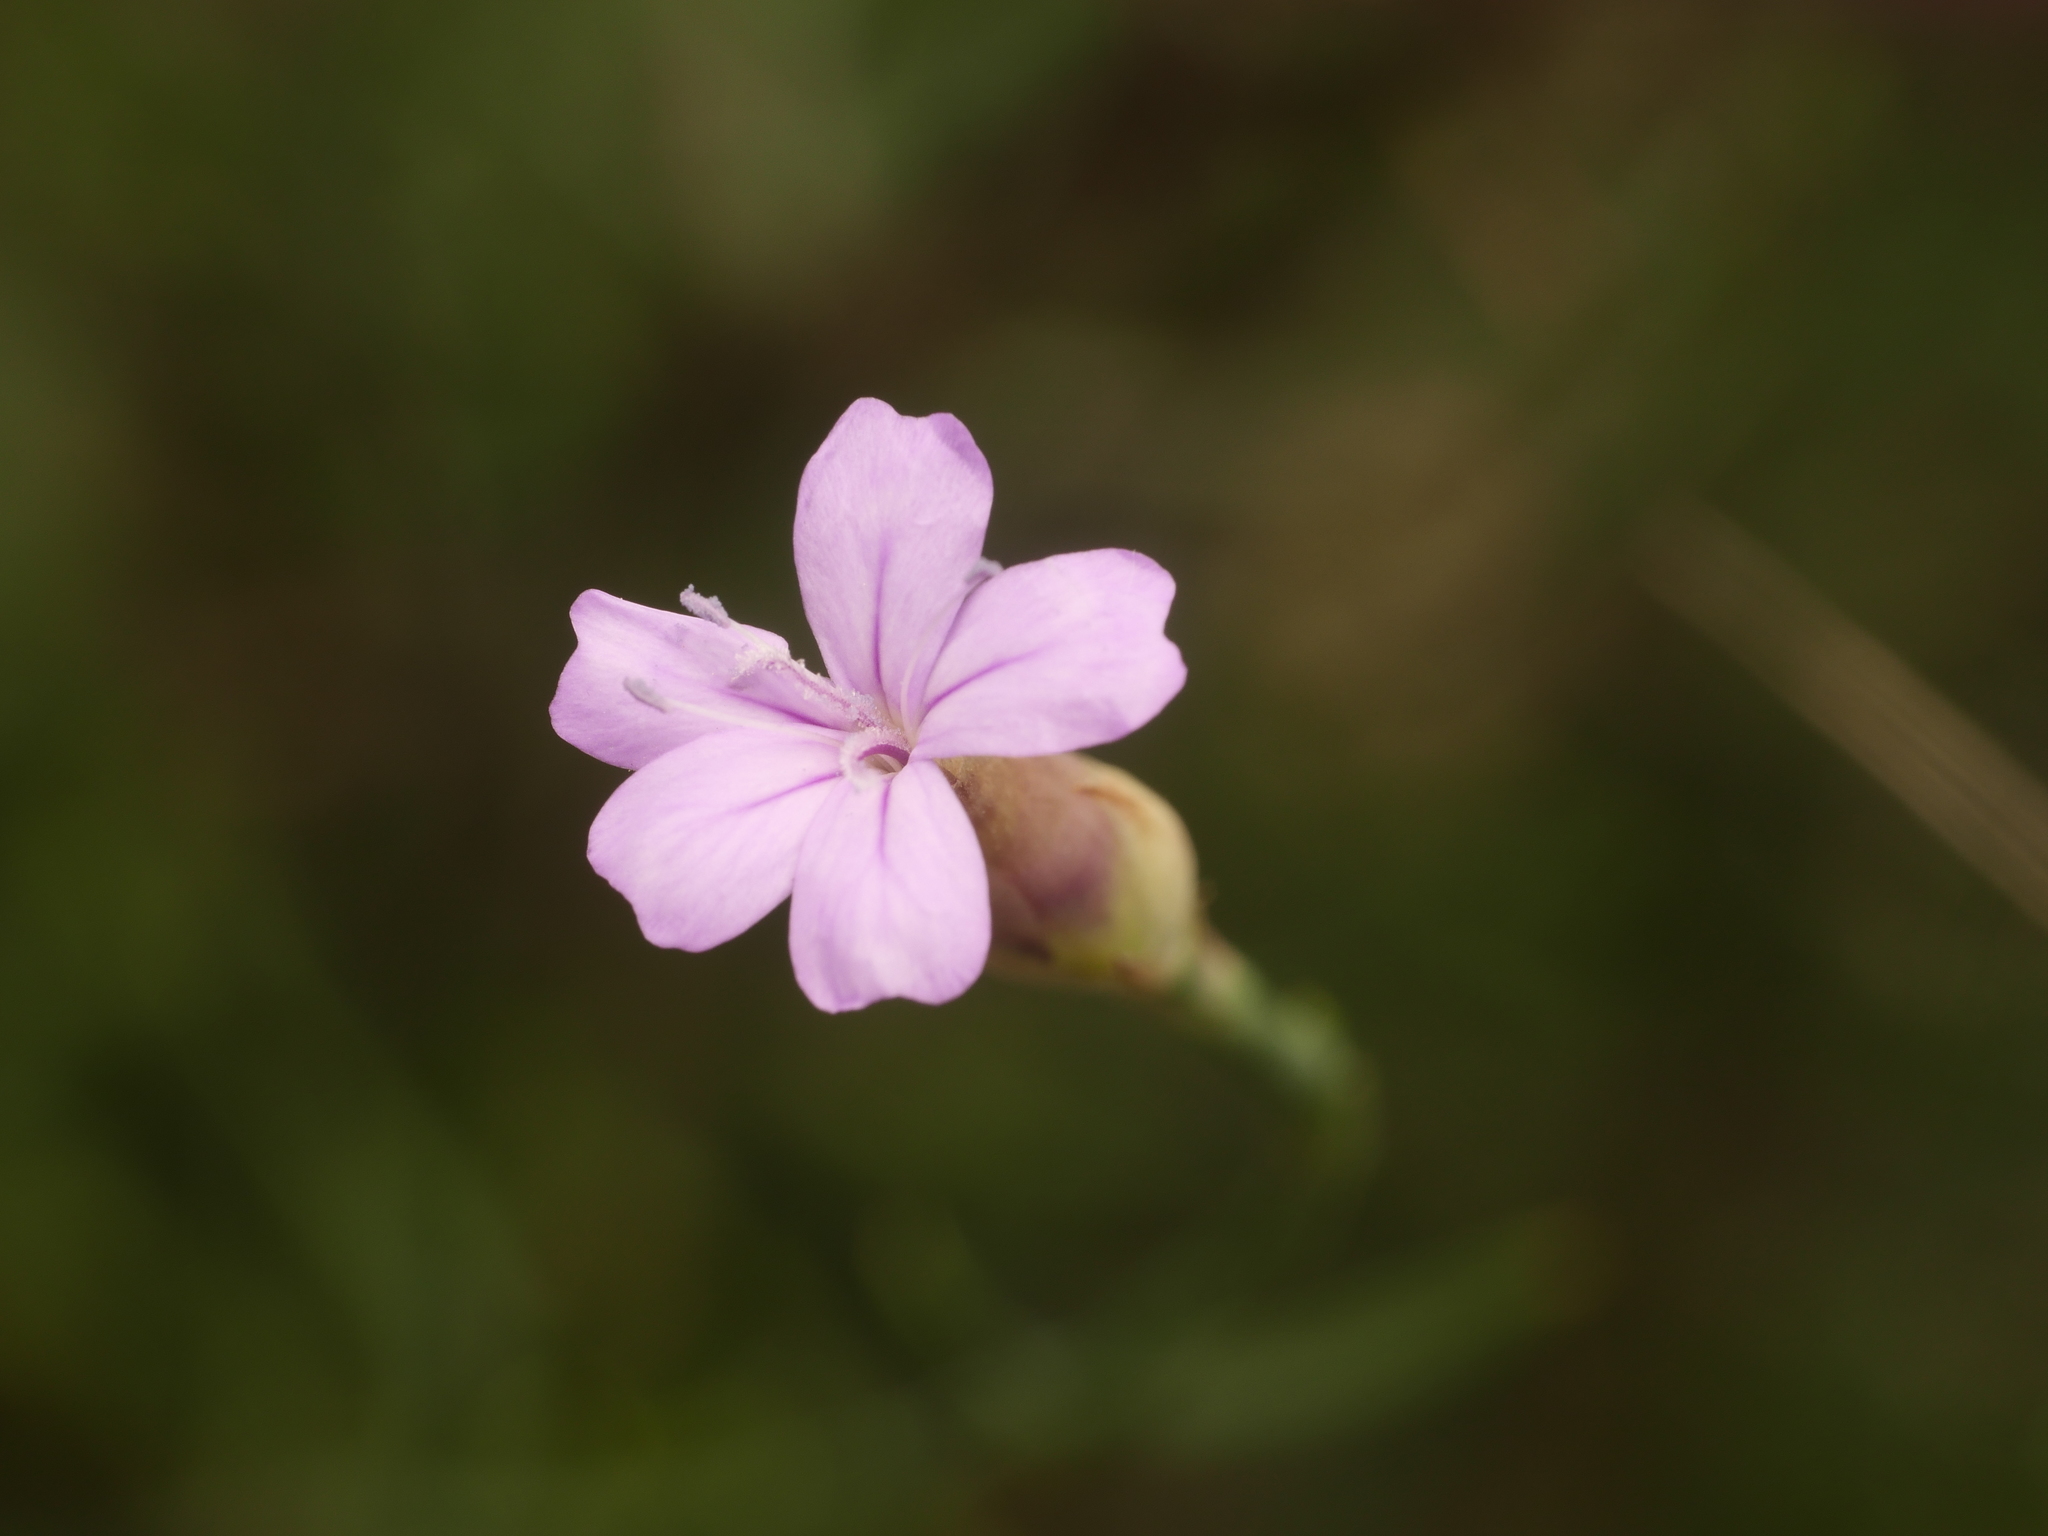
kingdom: Plantae
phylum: Tracheophyta
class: Magnoliopsida
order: Caryophyllales
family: Caryophyllaceae
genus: Petrorhagia
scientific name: Petrorhagia prolifera
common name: Proliferous pink
